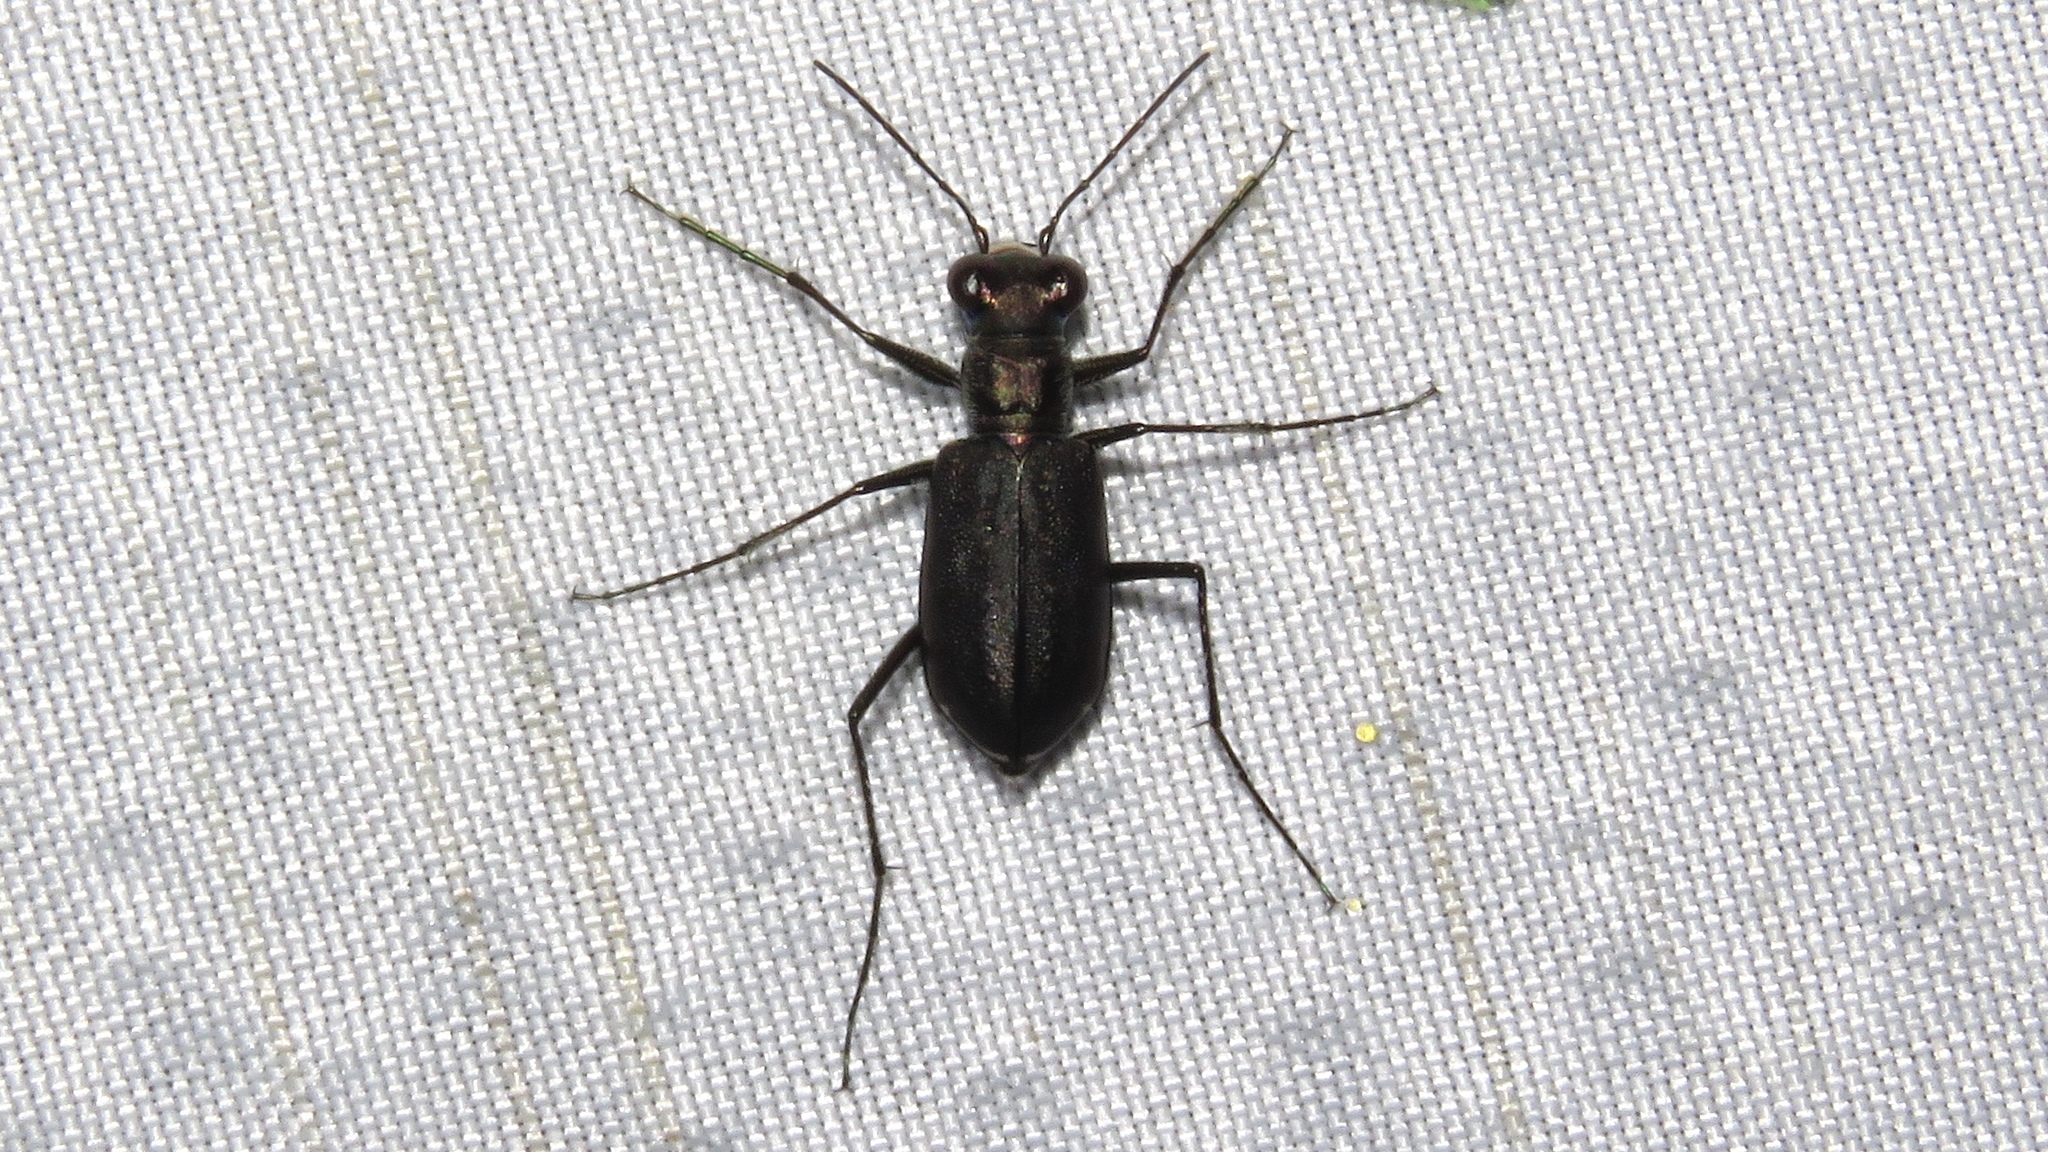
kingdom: Animalia
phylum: Arthropoda
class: Insecta
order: Coleoptera
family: Carabidae
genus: Cicindela
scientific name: Cicindela punctulata
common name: Punctured tiger beetle
